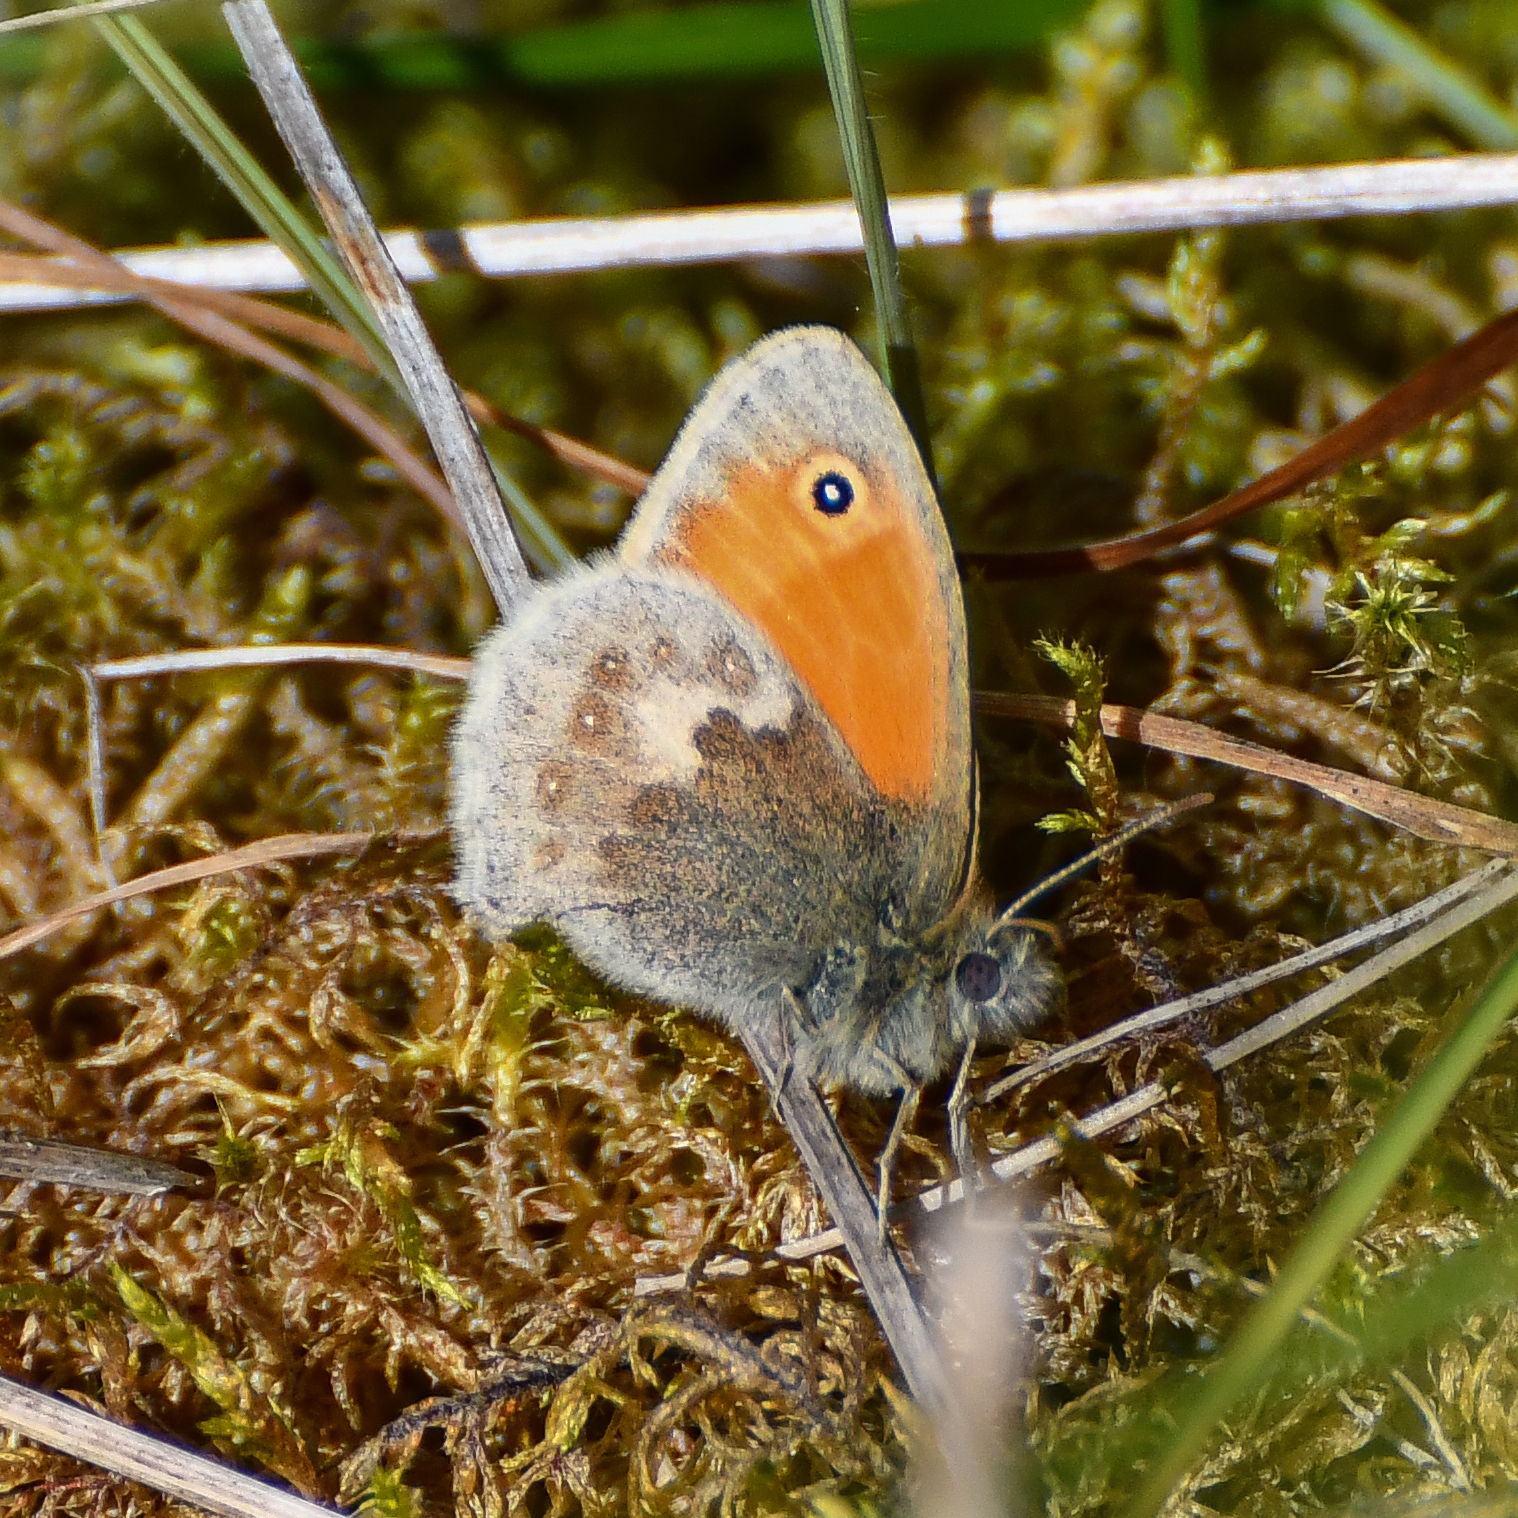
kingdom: Animalia
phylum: Arthropoda
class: Insecta
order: Lepidoptera
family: Nymphalidae
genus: Coenonympha
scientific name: Coenonympha pamphilus
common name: Small heath
